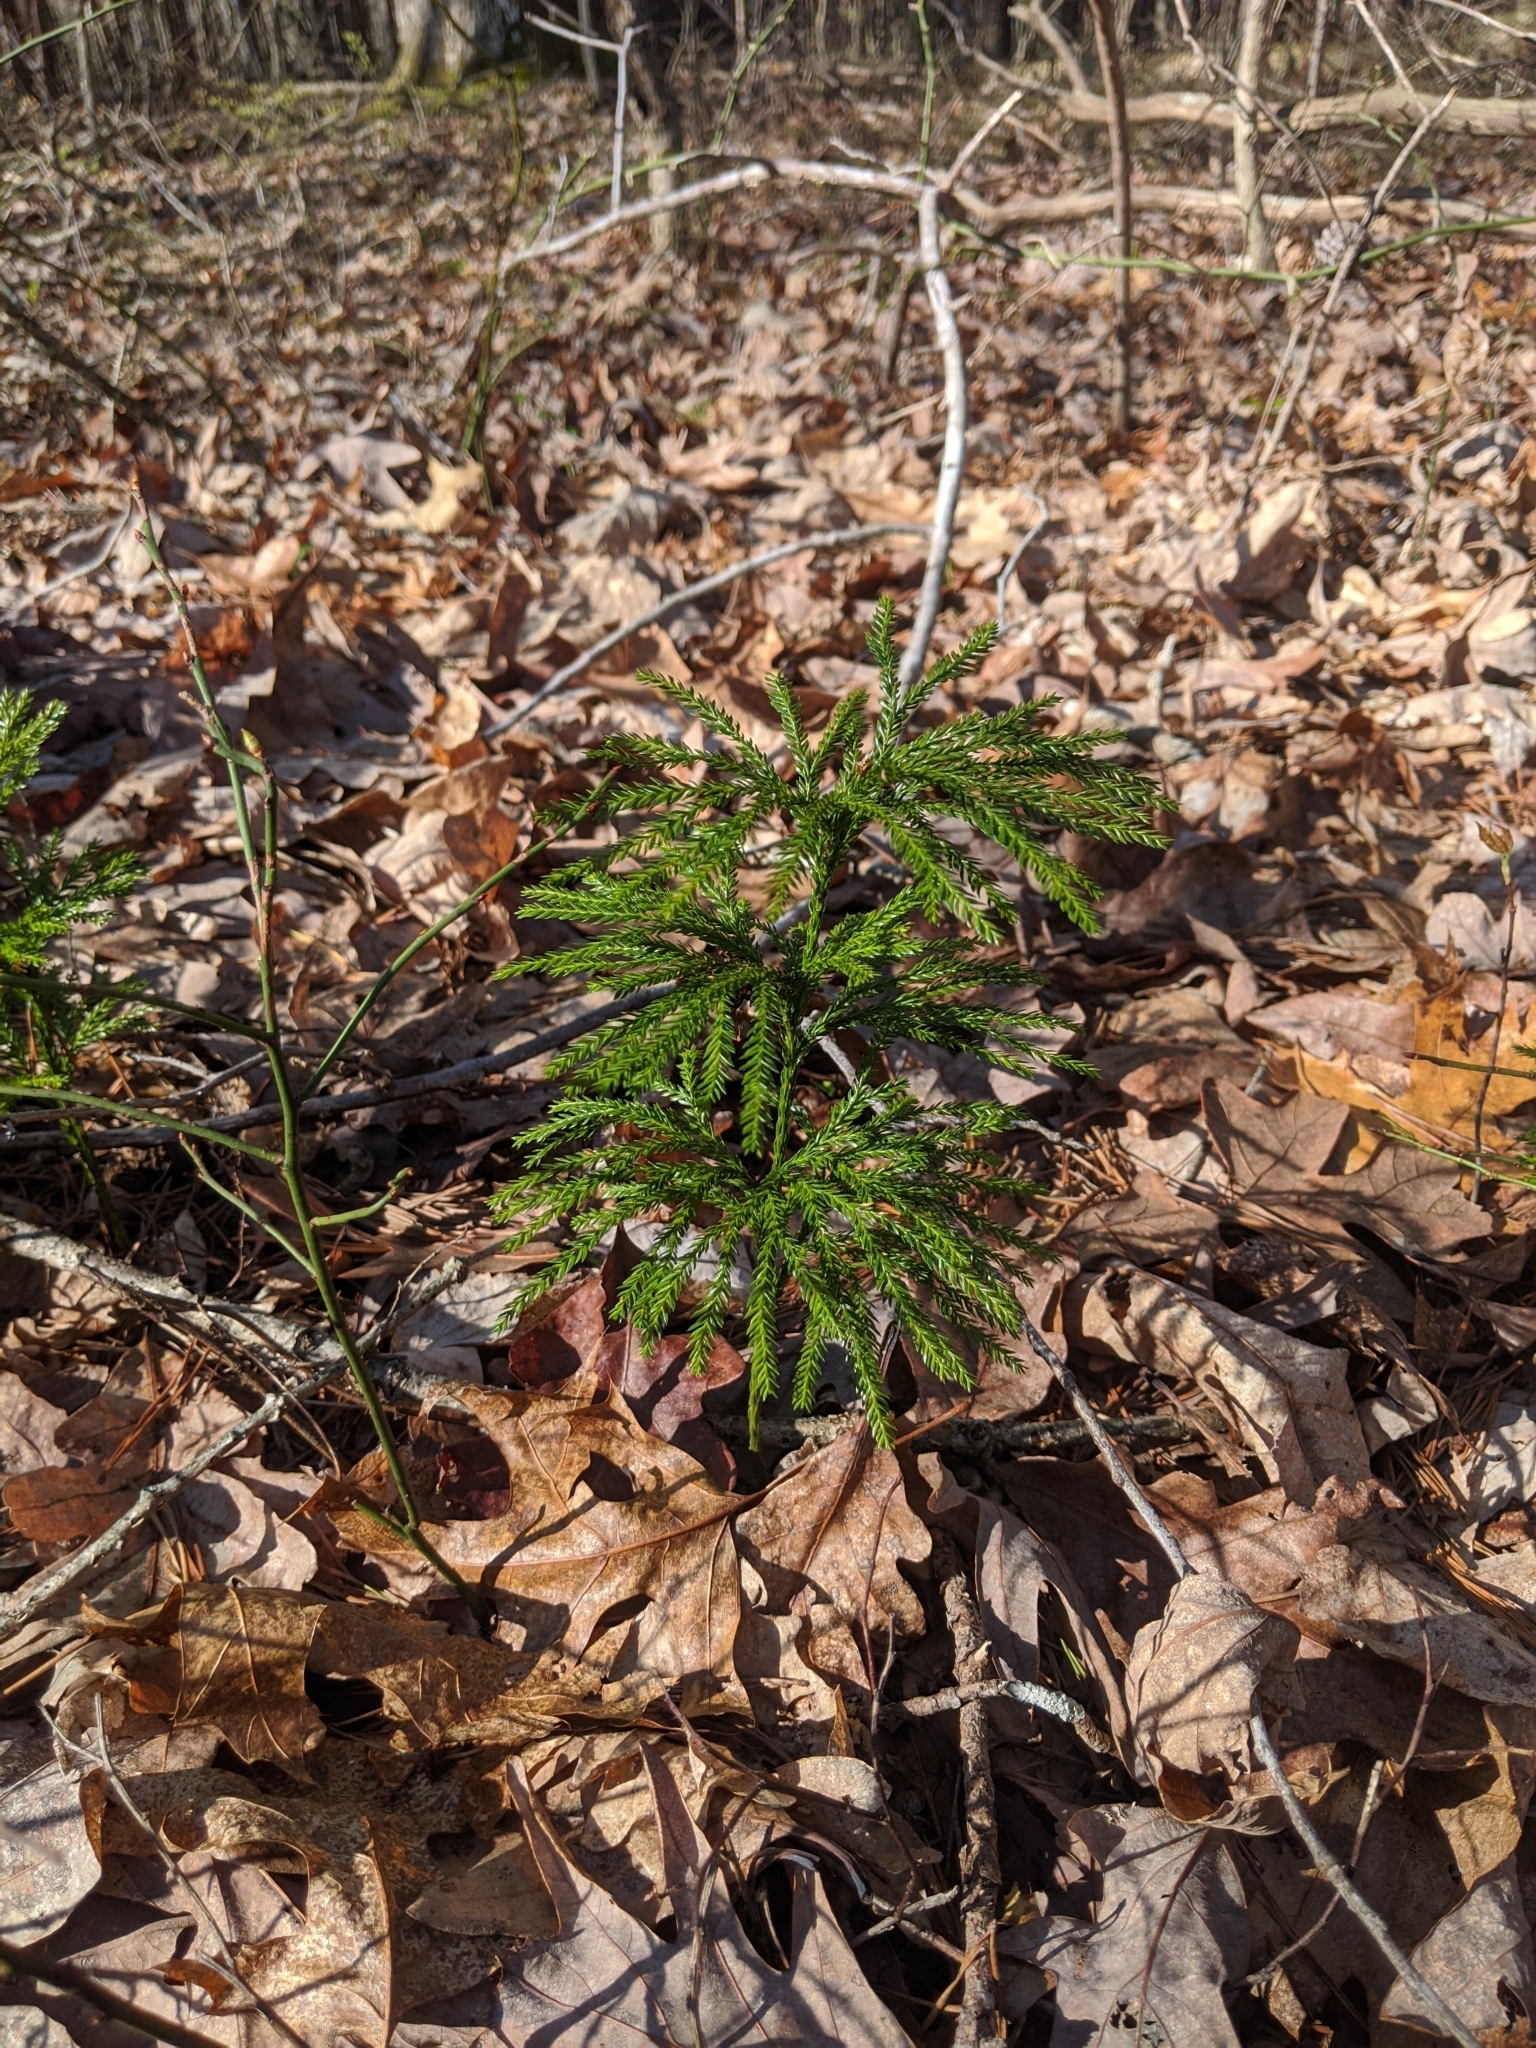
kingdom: Plantae
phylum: Tracheophyta
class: Lycopodiopsida
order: Lycopodiales
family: Lycopodiaceae
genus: Dendrolycopodium
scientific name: Dendrolycopodium obscurum
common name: Common ground-pine
